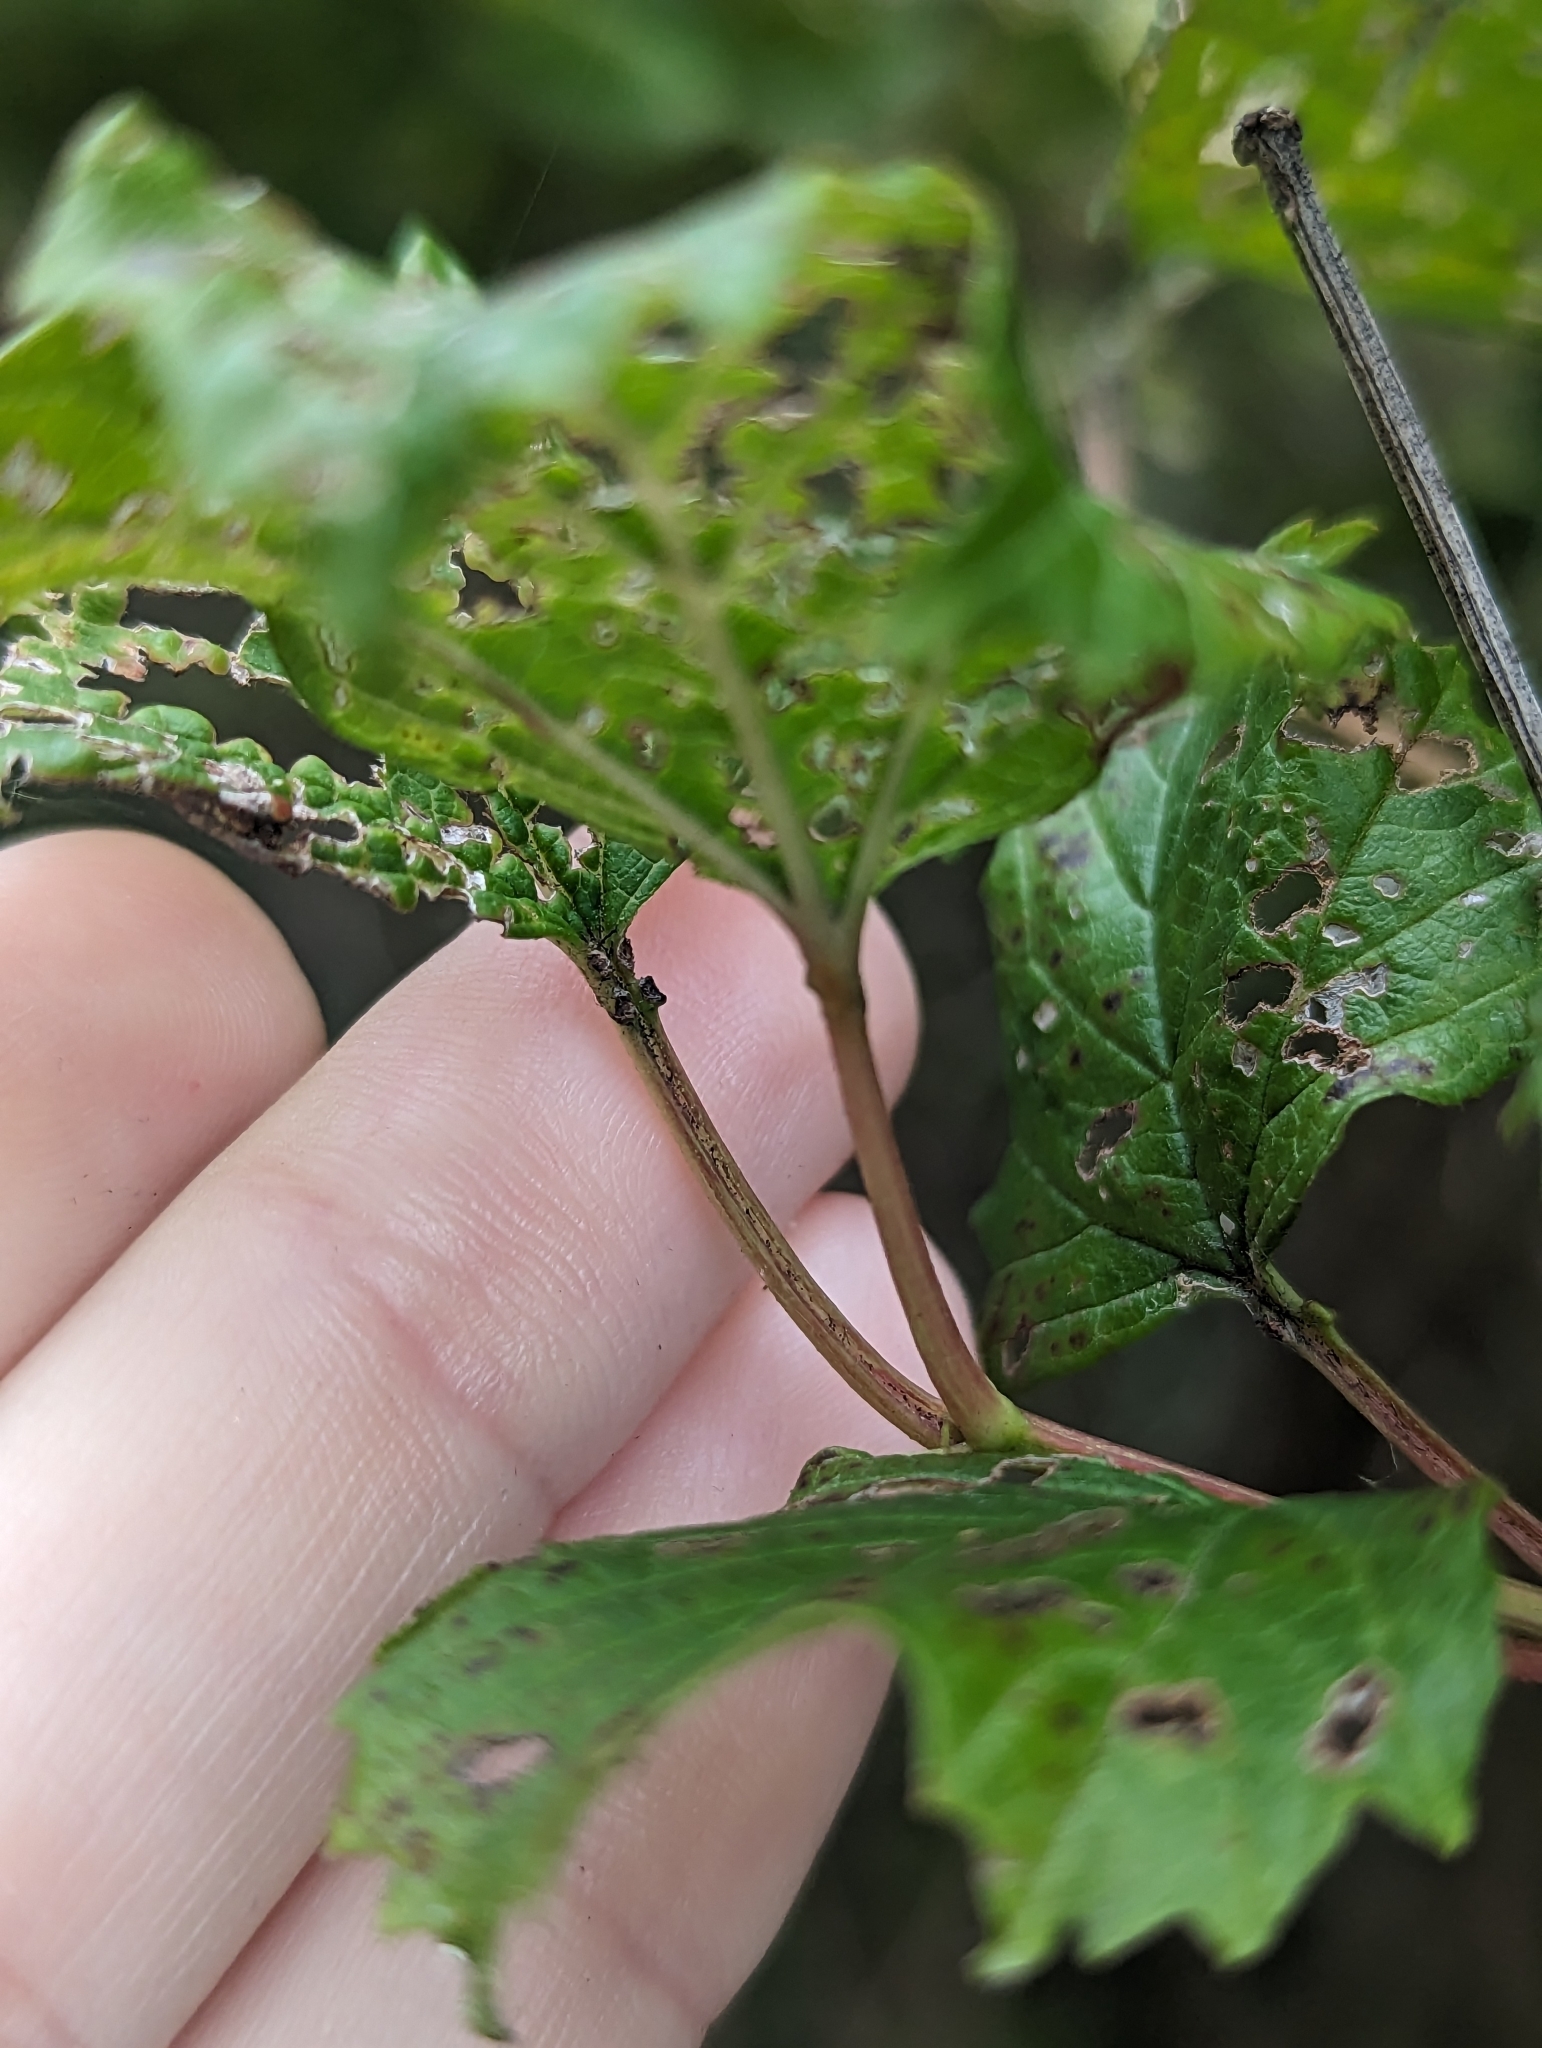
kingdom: Plantae
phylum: Tracheophyta
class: Magnoliopsida
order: Dipsacales
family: Viburnaceae
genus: Viburnum
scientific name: Viburnum opulus
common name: Guelder-rose
